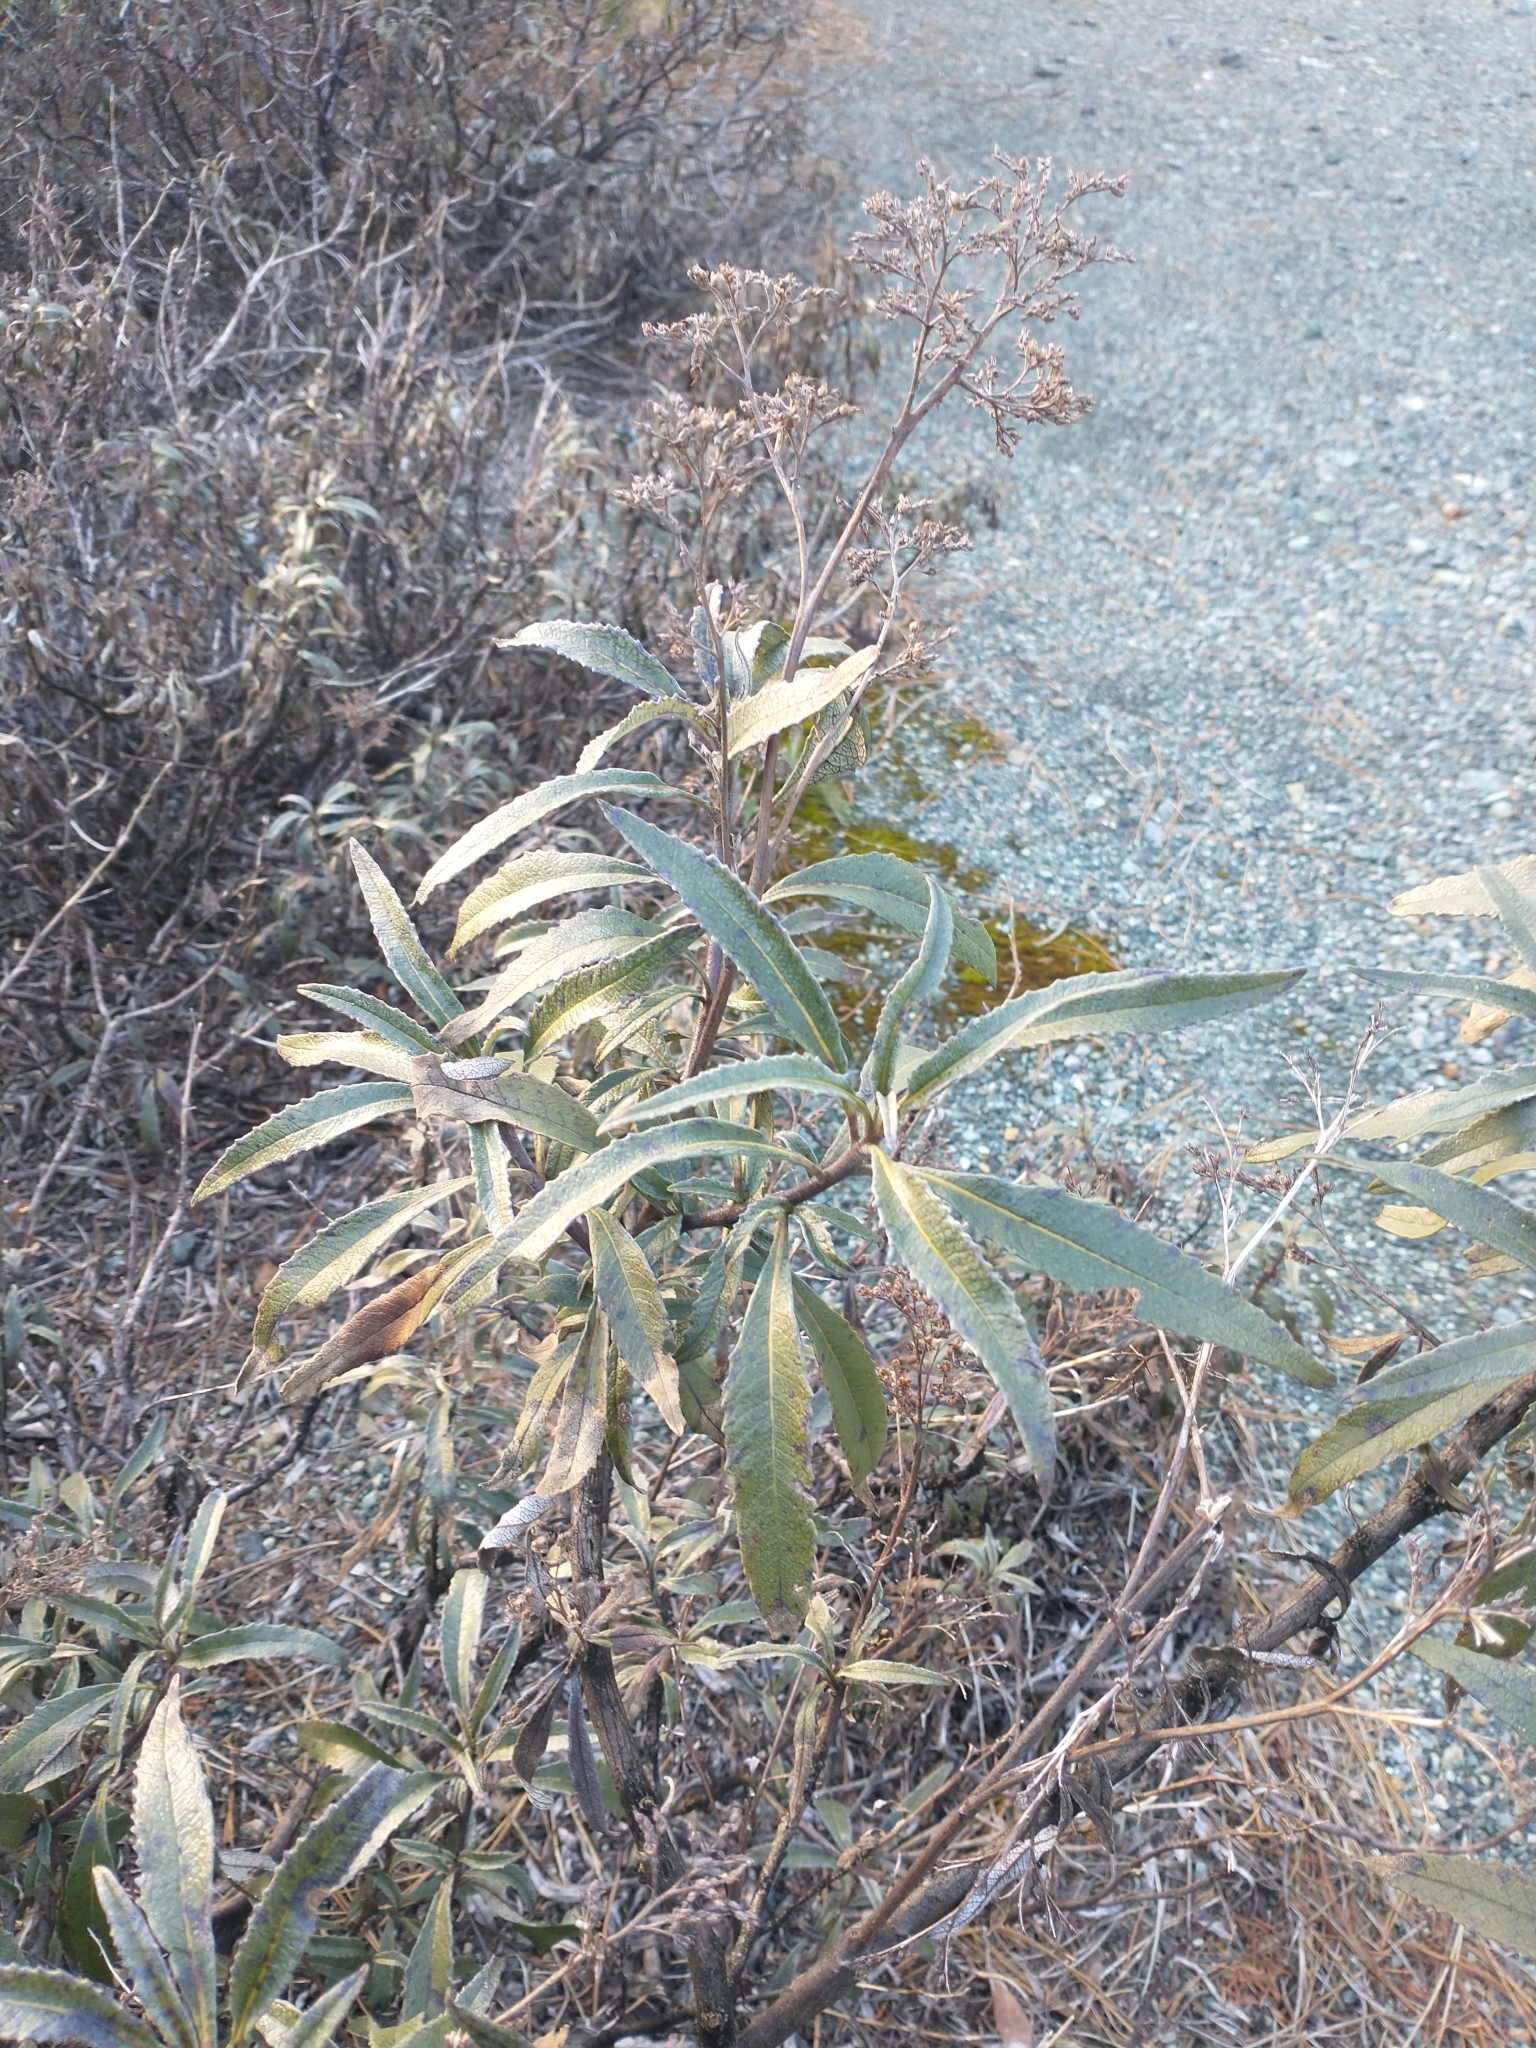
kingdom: Plantae
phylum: Tracheophyta
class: Magnoliopsida
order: Boraginales
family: Namaceae
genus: Eriodictyon
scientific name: Eriodictyon californicum
